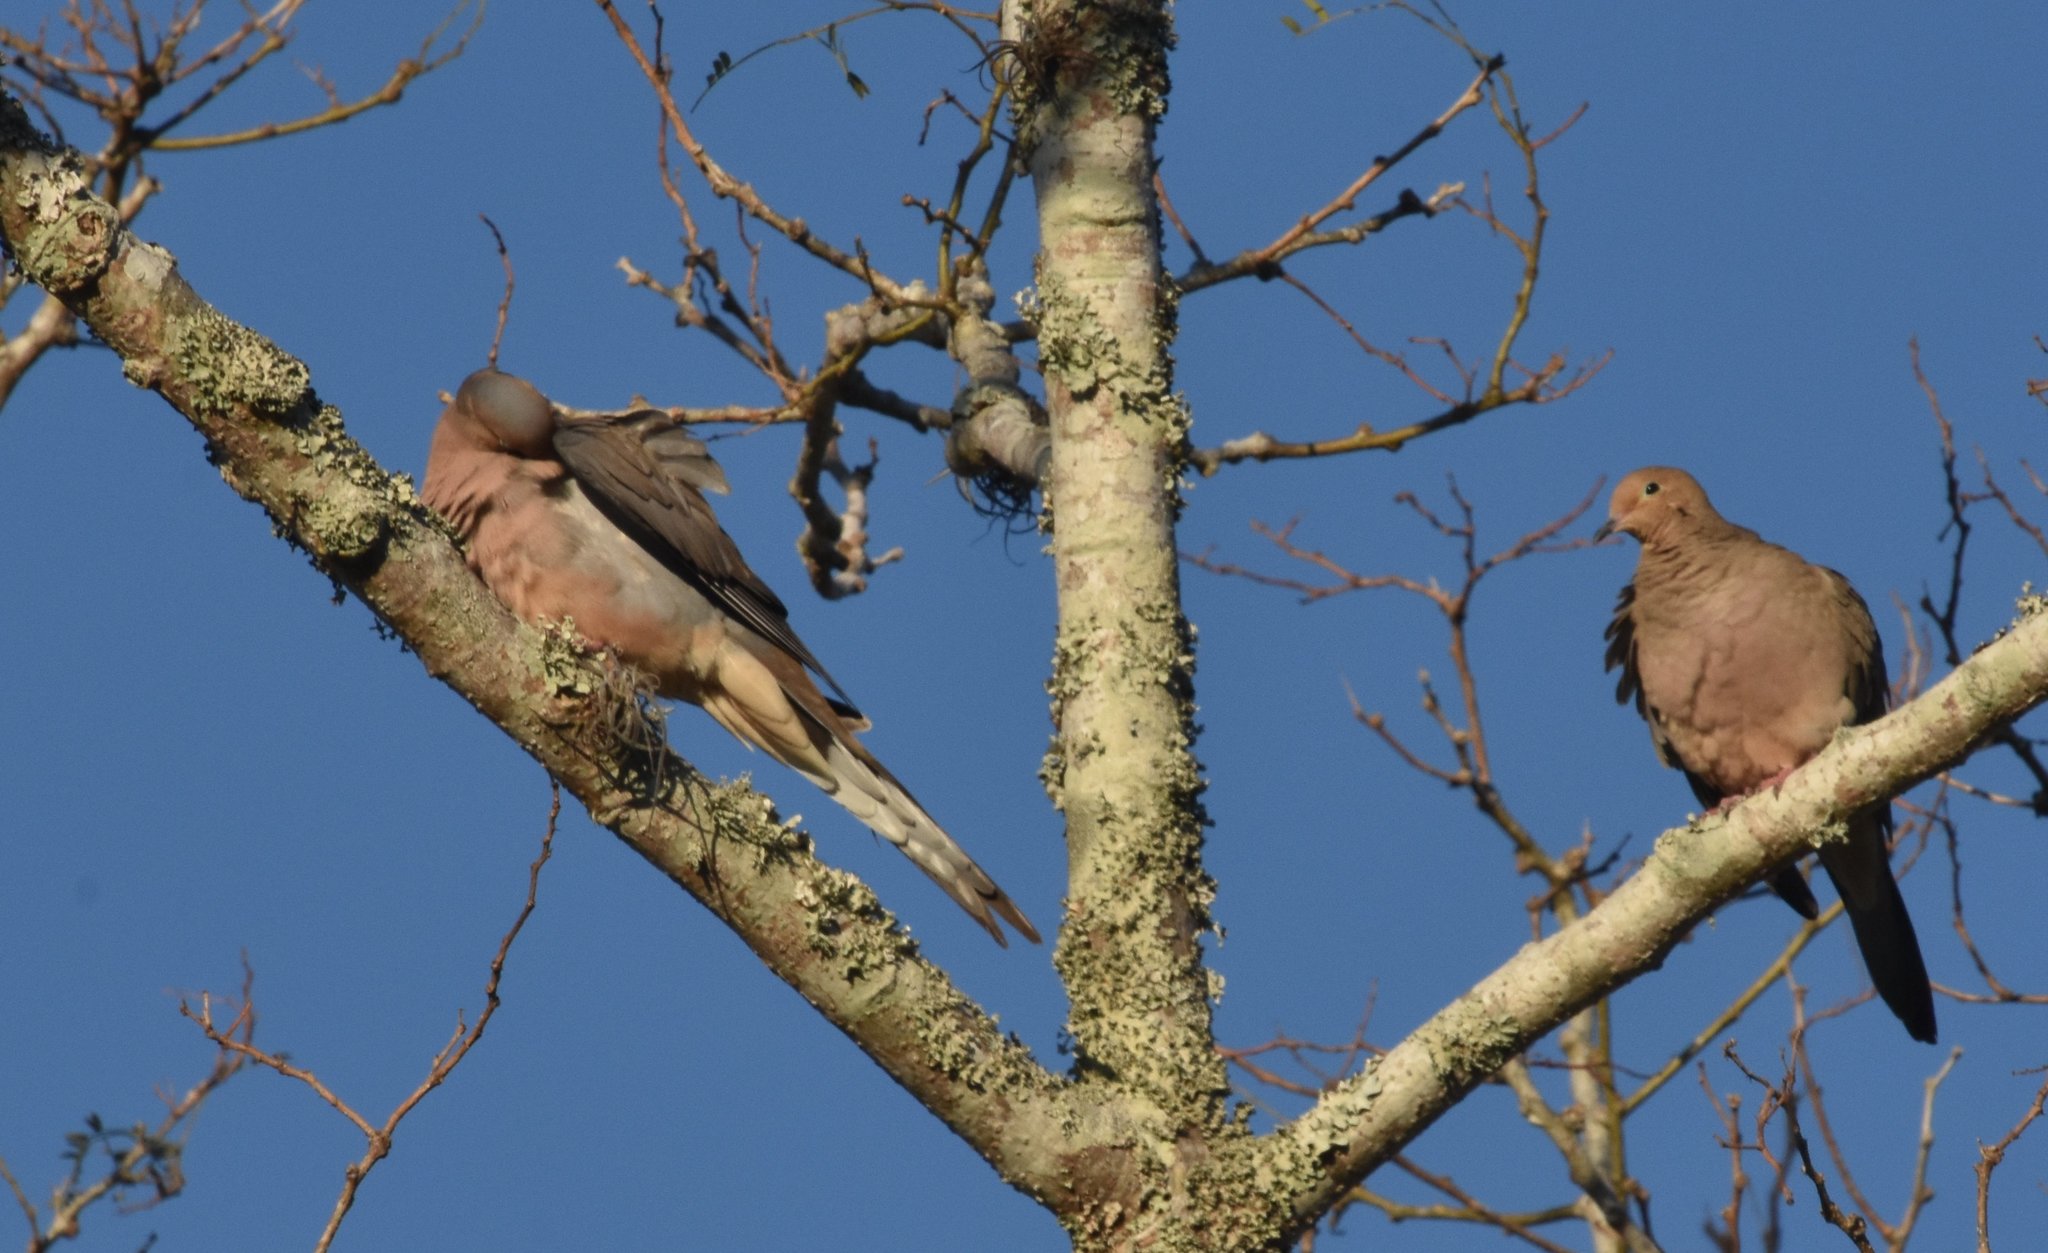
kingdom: Animalia
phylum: Chordata
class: Aves
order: Columbiformes
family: Columbidae
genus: Zenaida
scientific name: Zenaida macroura
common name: Mourning dove
